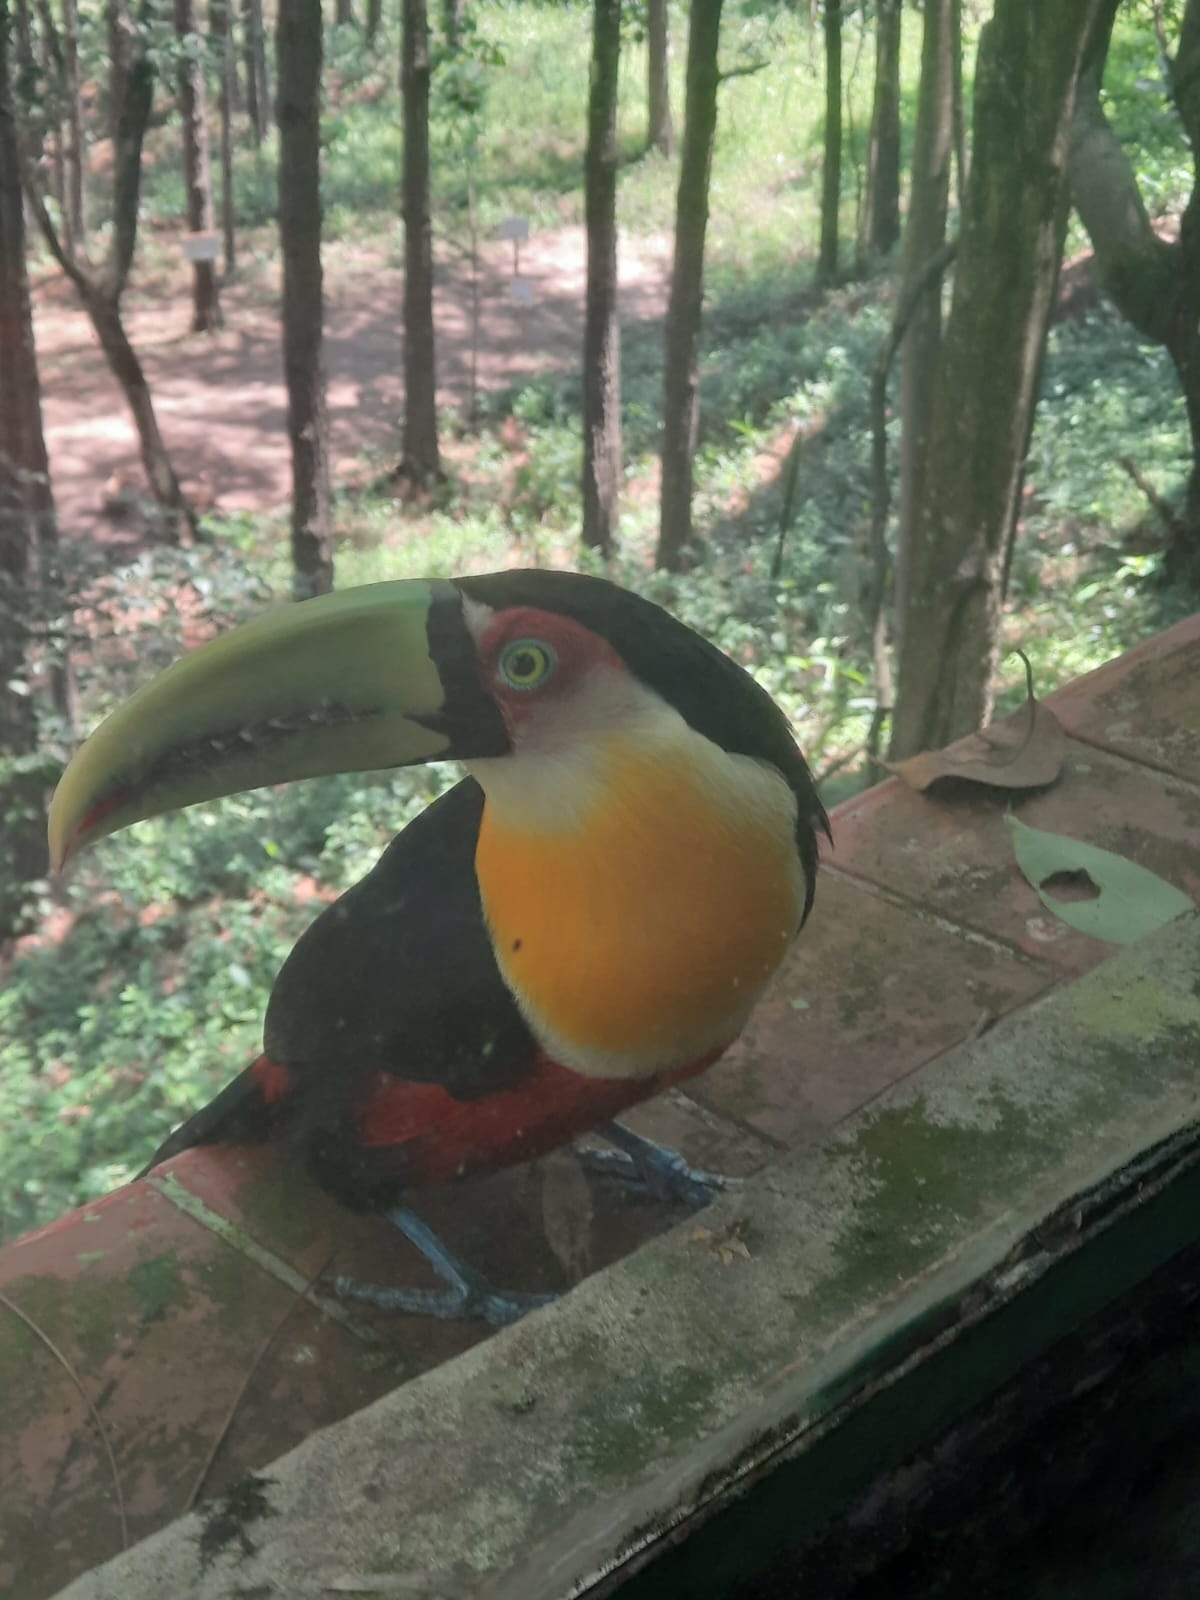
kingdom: Animalia
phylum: Chordata
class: Aves
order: Piciformes
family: Ramphastidae
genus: Ramphastos
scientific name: Ramphastos dicolorus
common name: Green-billed toucan
